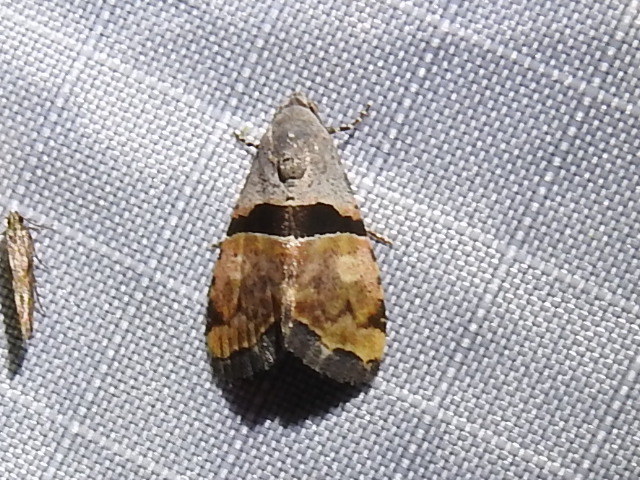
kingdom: Animalia
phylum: Arthropoda
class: Insecta
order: Lepidoptera
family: Noctuidae
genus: Cobubatha
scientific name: Cobubatha lixiva
